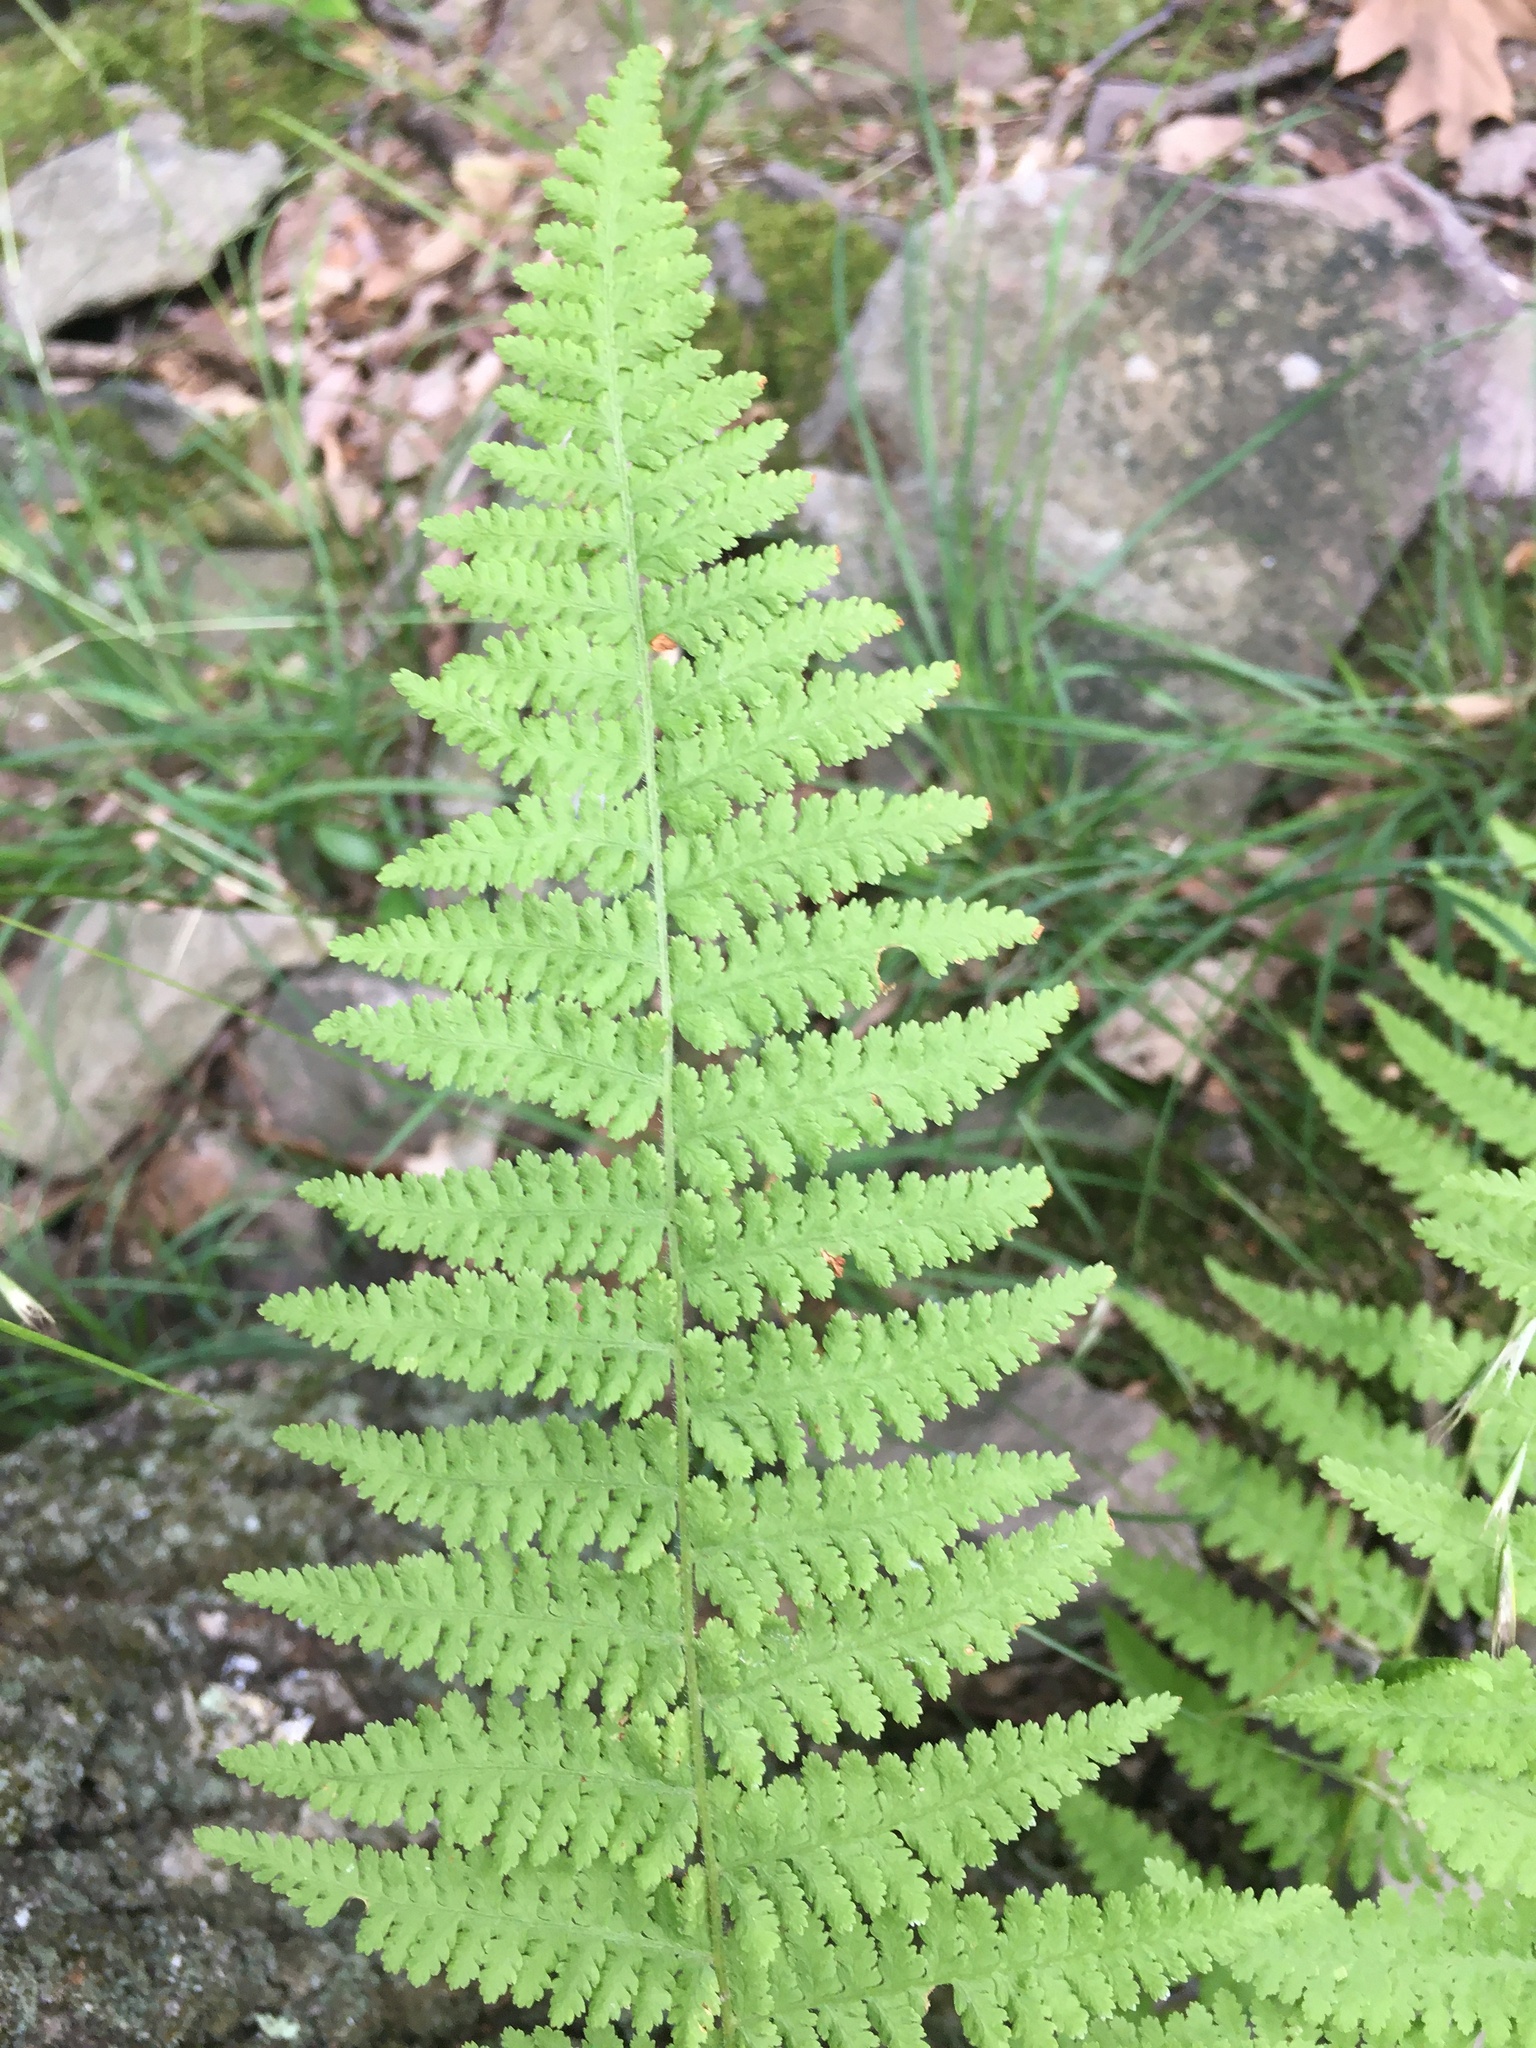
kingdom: Plantae
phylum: Tracheophyta
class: Polypodiopsida
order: Polypodiales
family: Dennstaedtiaceae
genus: Sitobolium
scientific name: Sitobolium punctilobum
